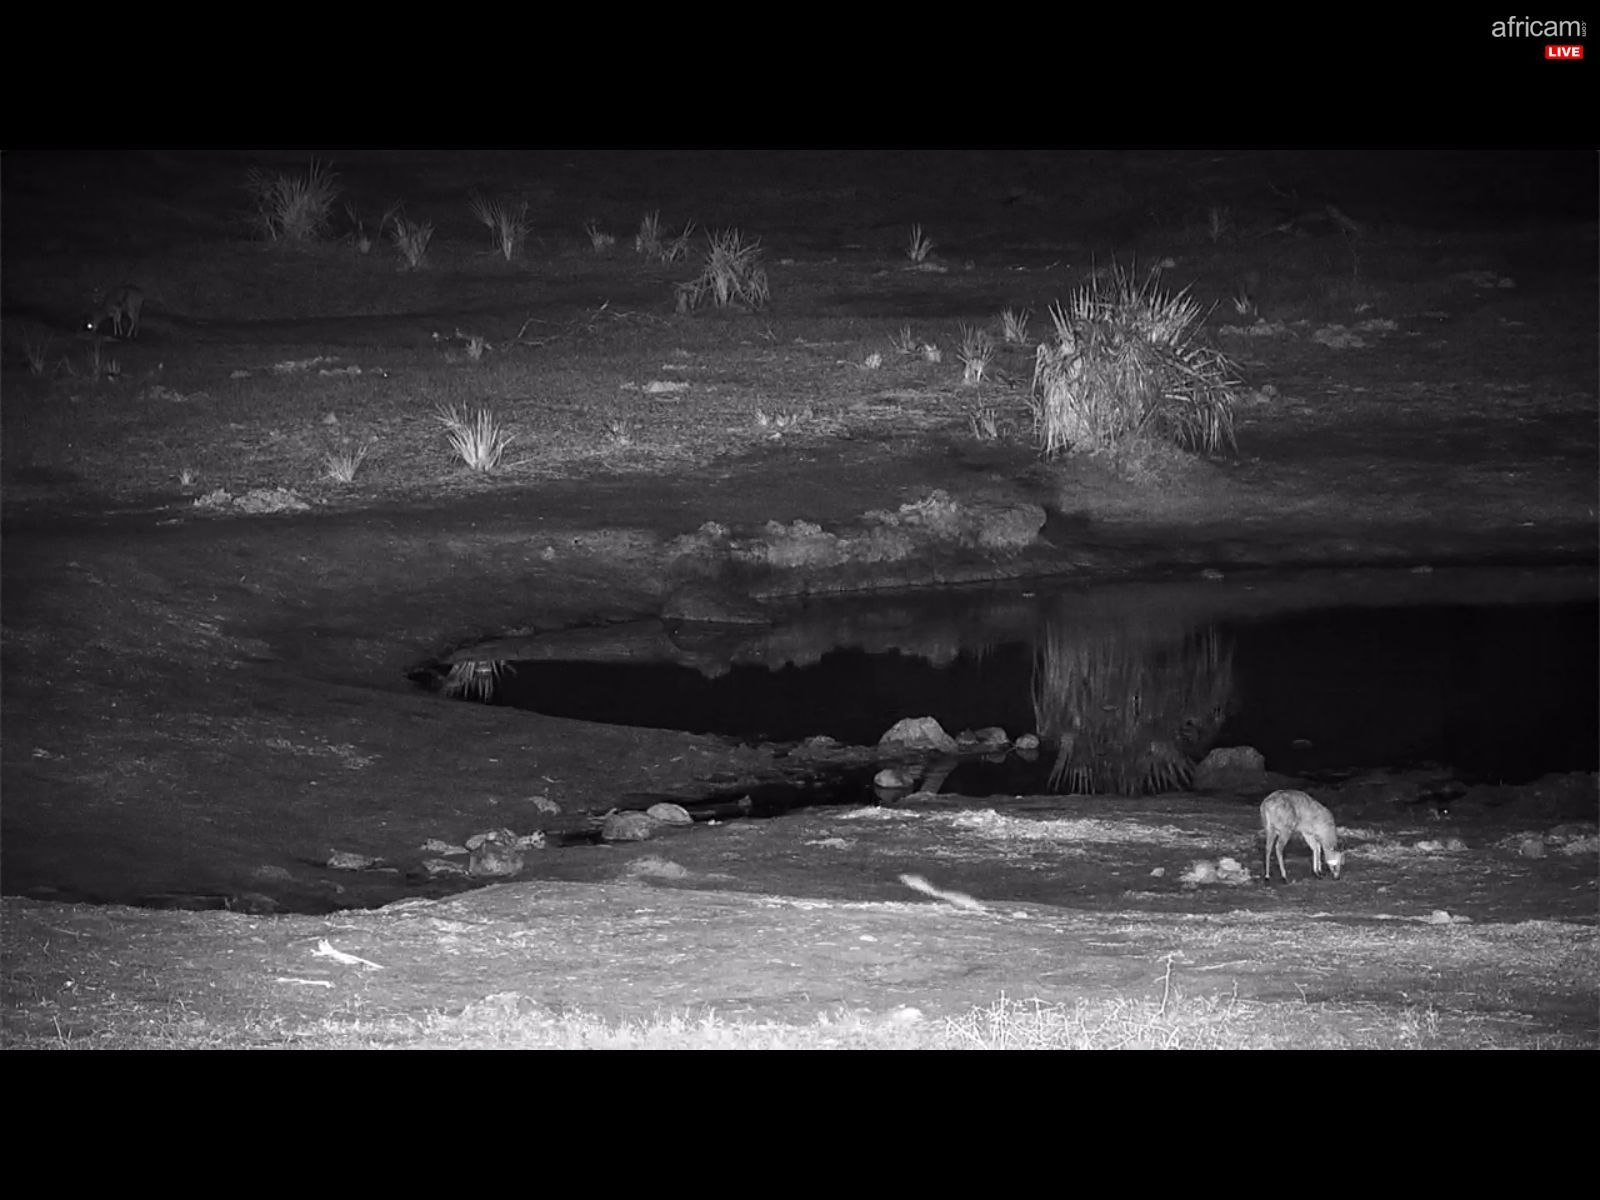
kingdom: Animalia
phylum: Chordata
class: Mammalia
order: Artiodactyla
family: Bovidae
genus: Sylvicapra
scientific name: Sylvicapra grimmia
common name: Bush duiker
